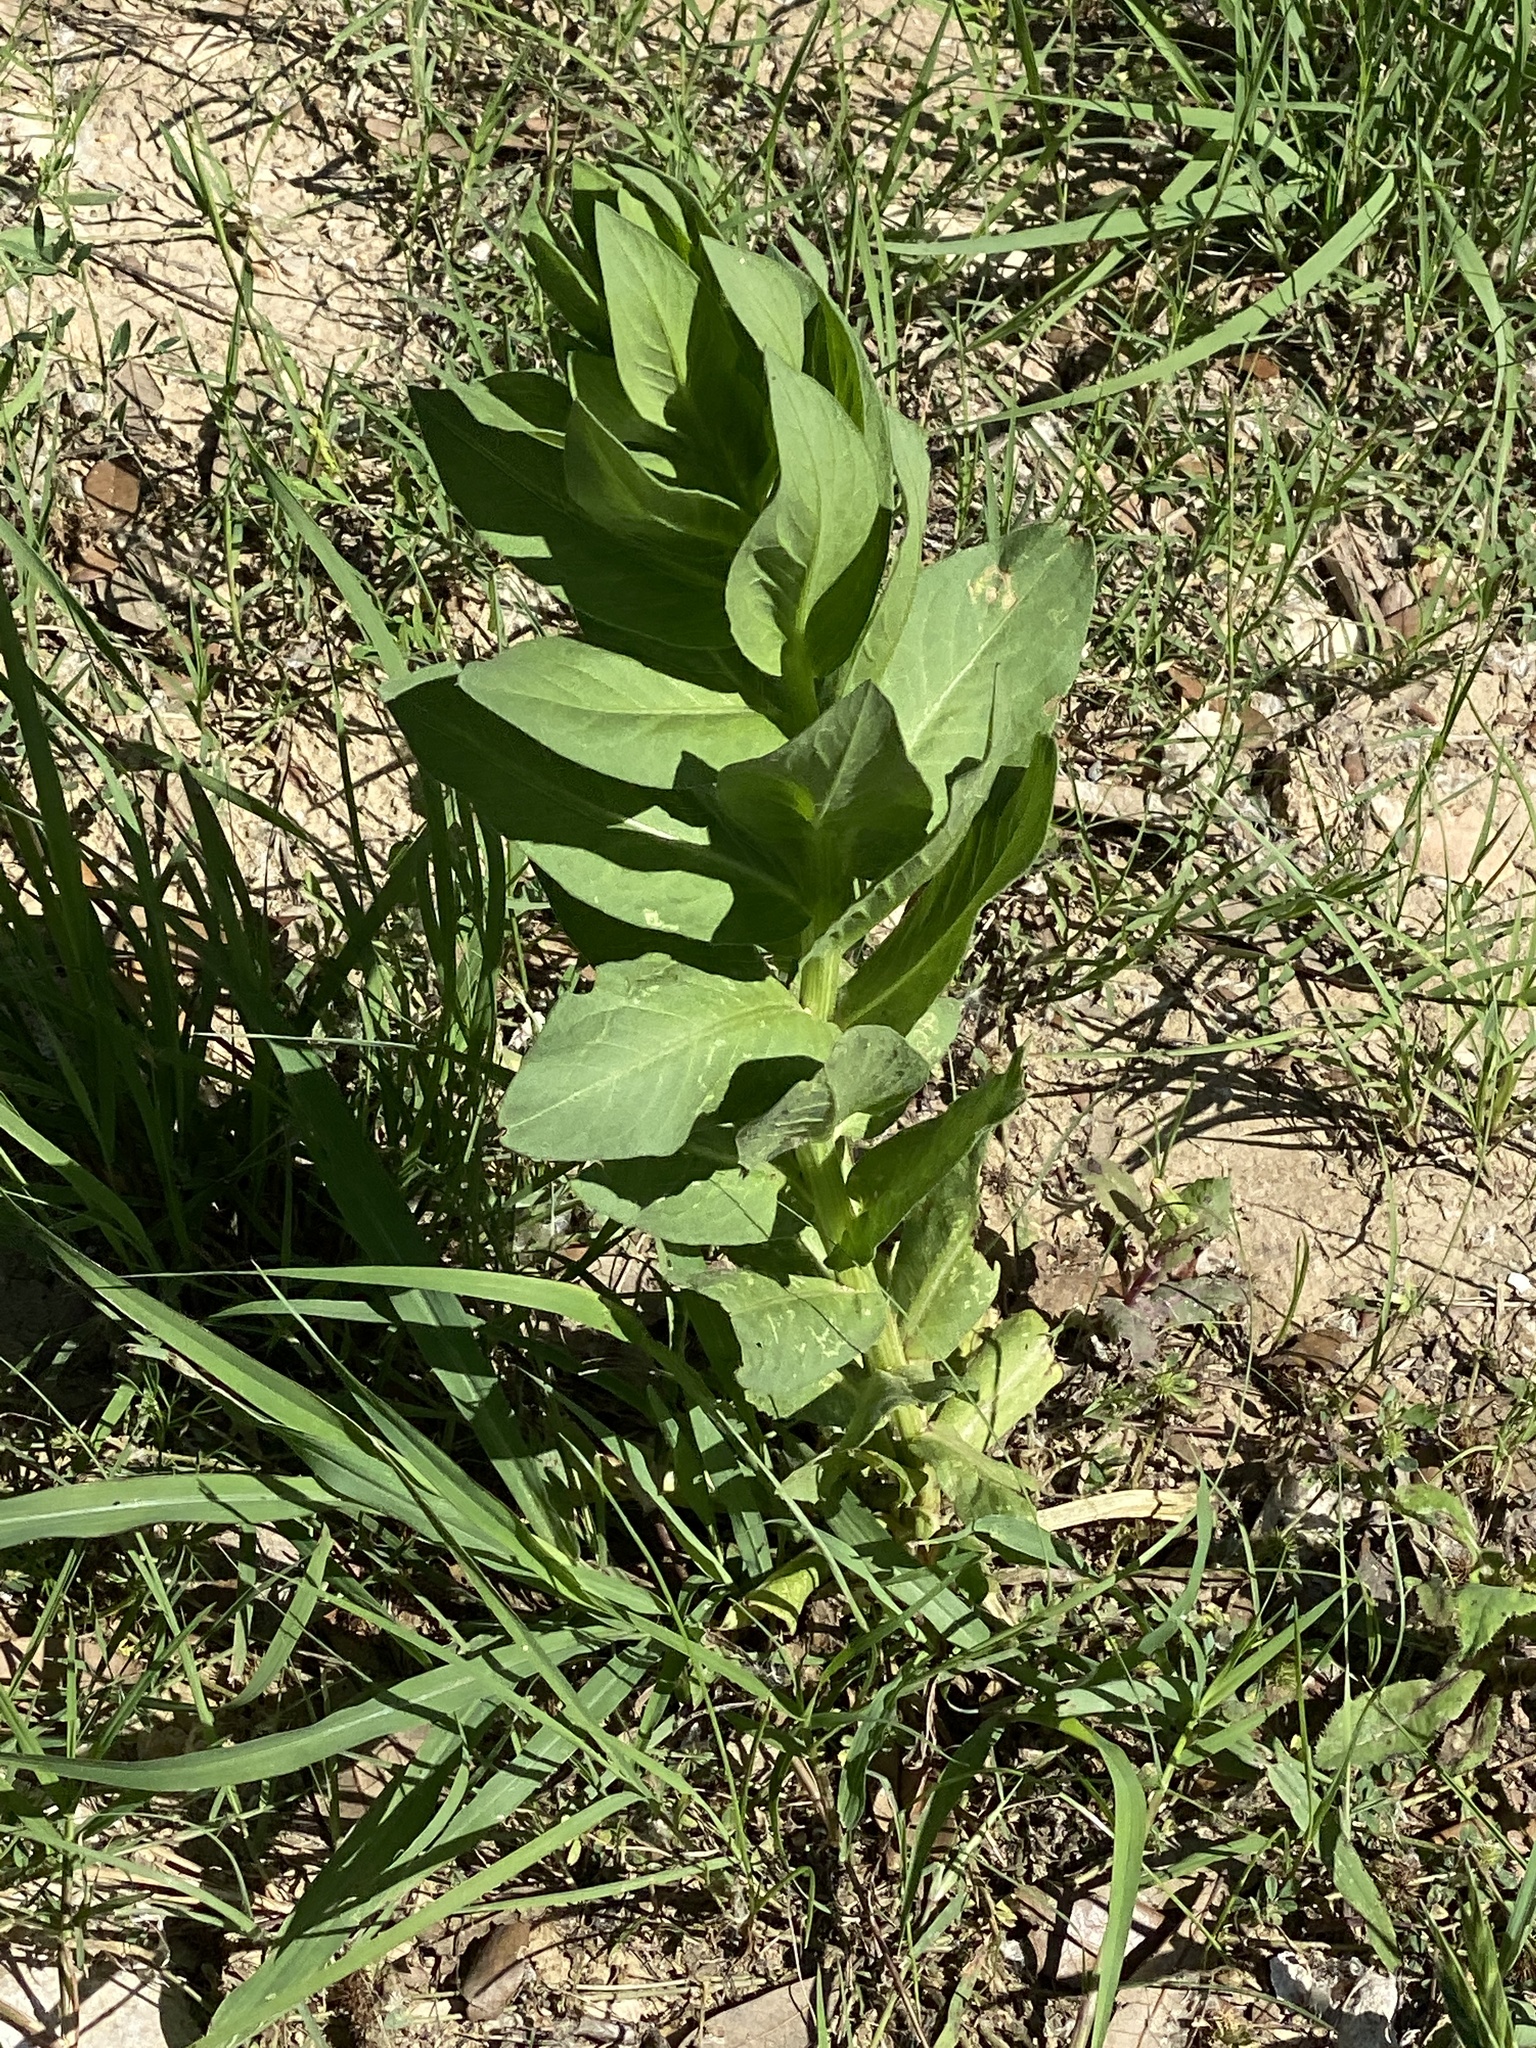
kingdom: Plantae
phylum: Tracheophyta
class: Magnoliopsida
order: Malpighiales
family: Euphorbiaceae
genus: Euphorbia
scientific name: Euphorbia marginata
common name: Ghostweed
